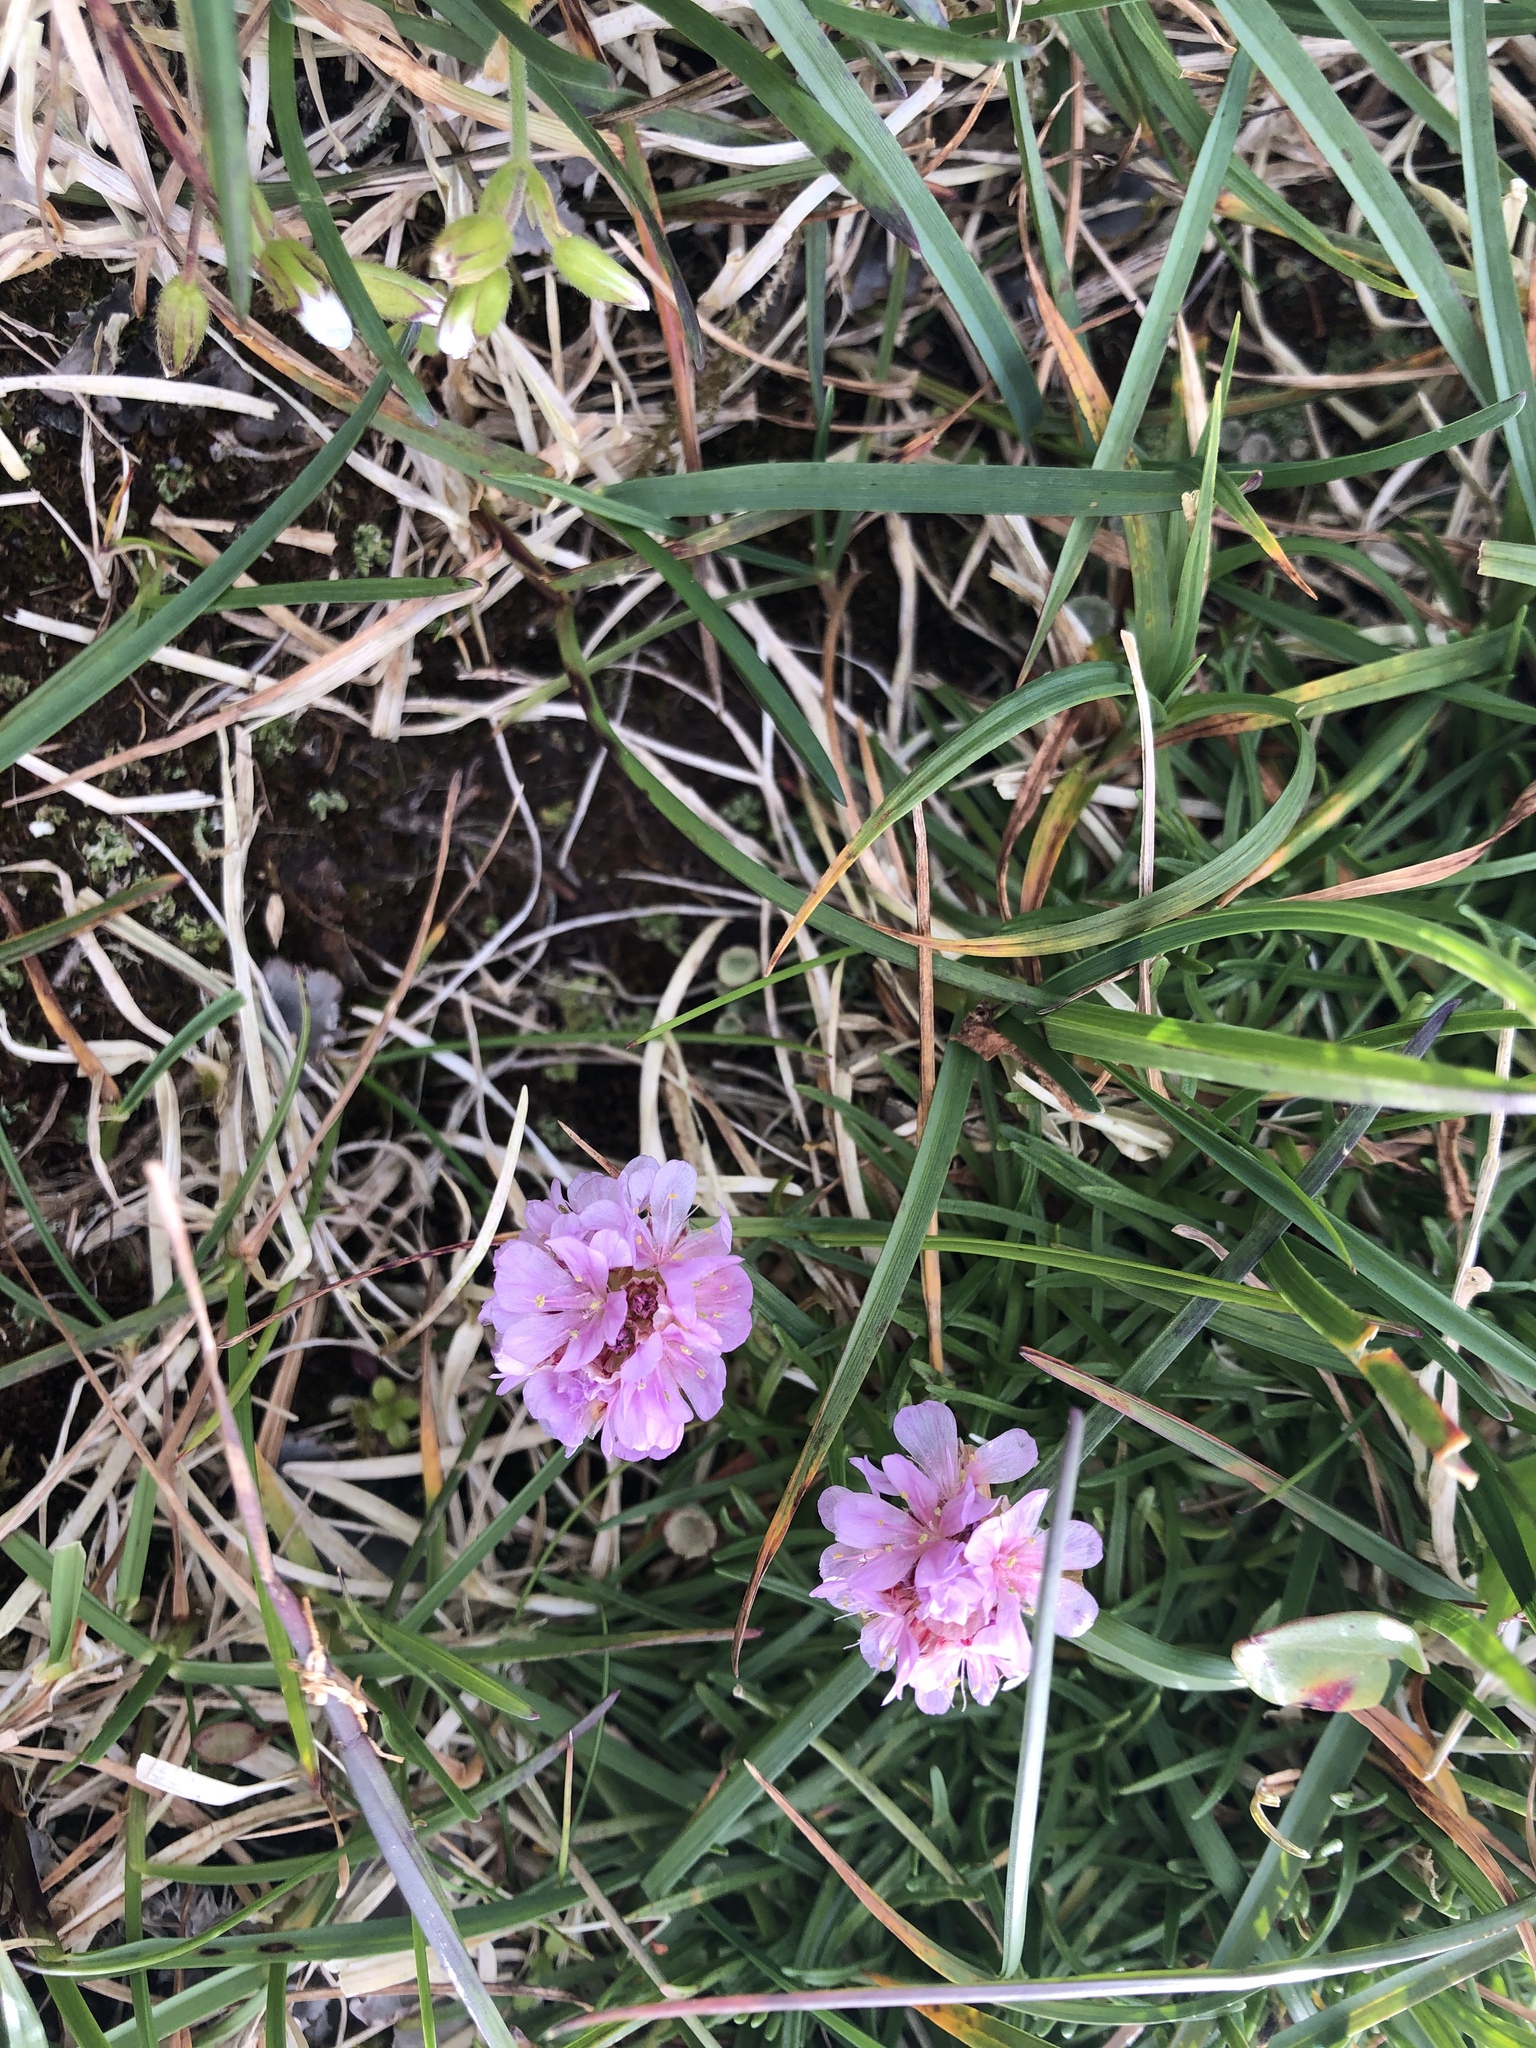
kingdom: Plantae
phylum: Tracheophyta
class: Magnoliopsida
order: Caryophyllales
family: Plumbaginaceae
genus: Armeria
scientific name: Armeria maritima
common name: Thrift
